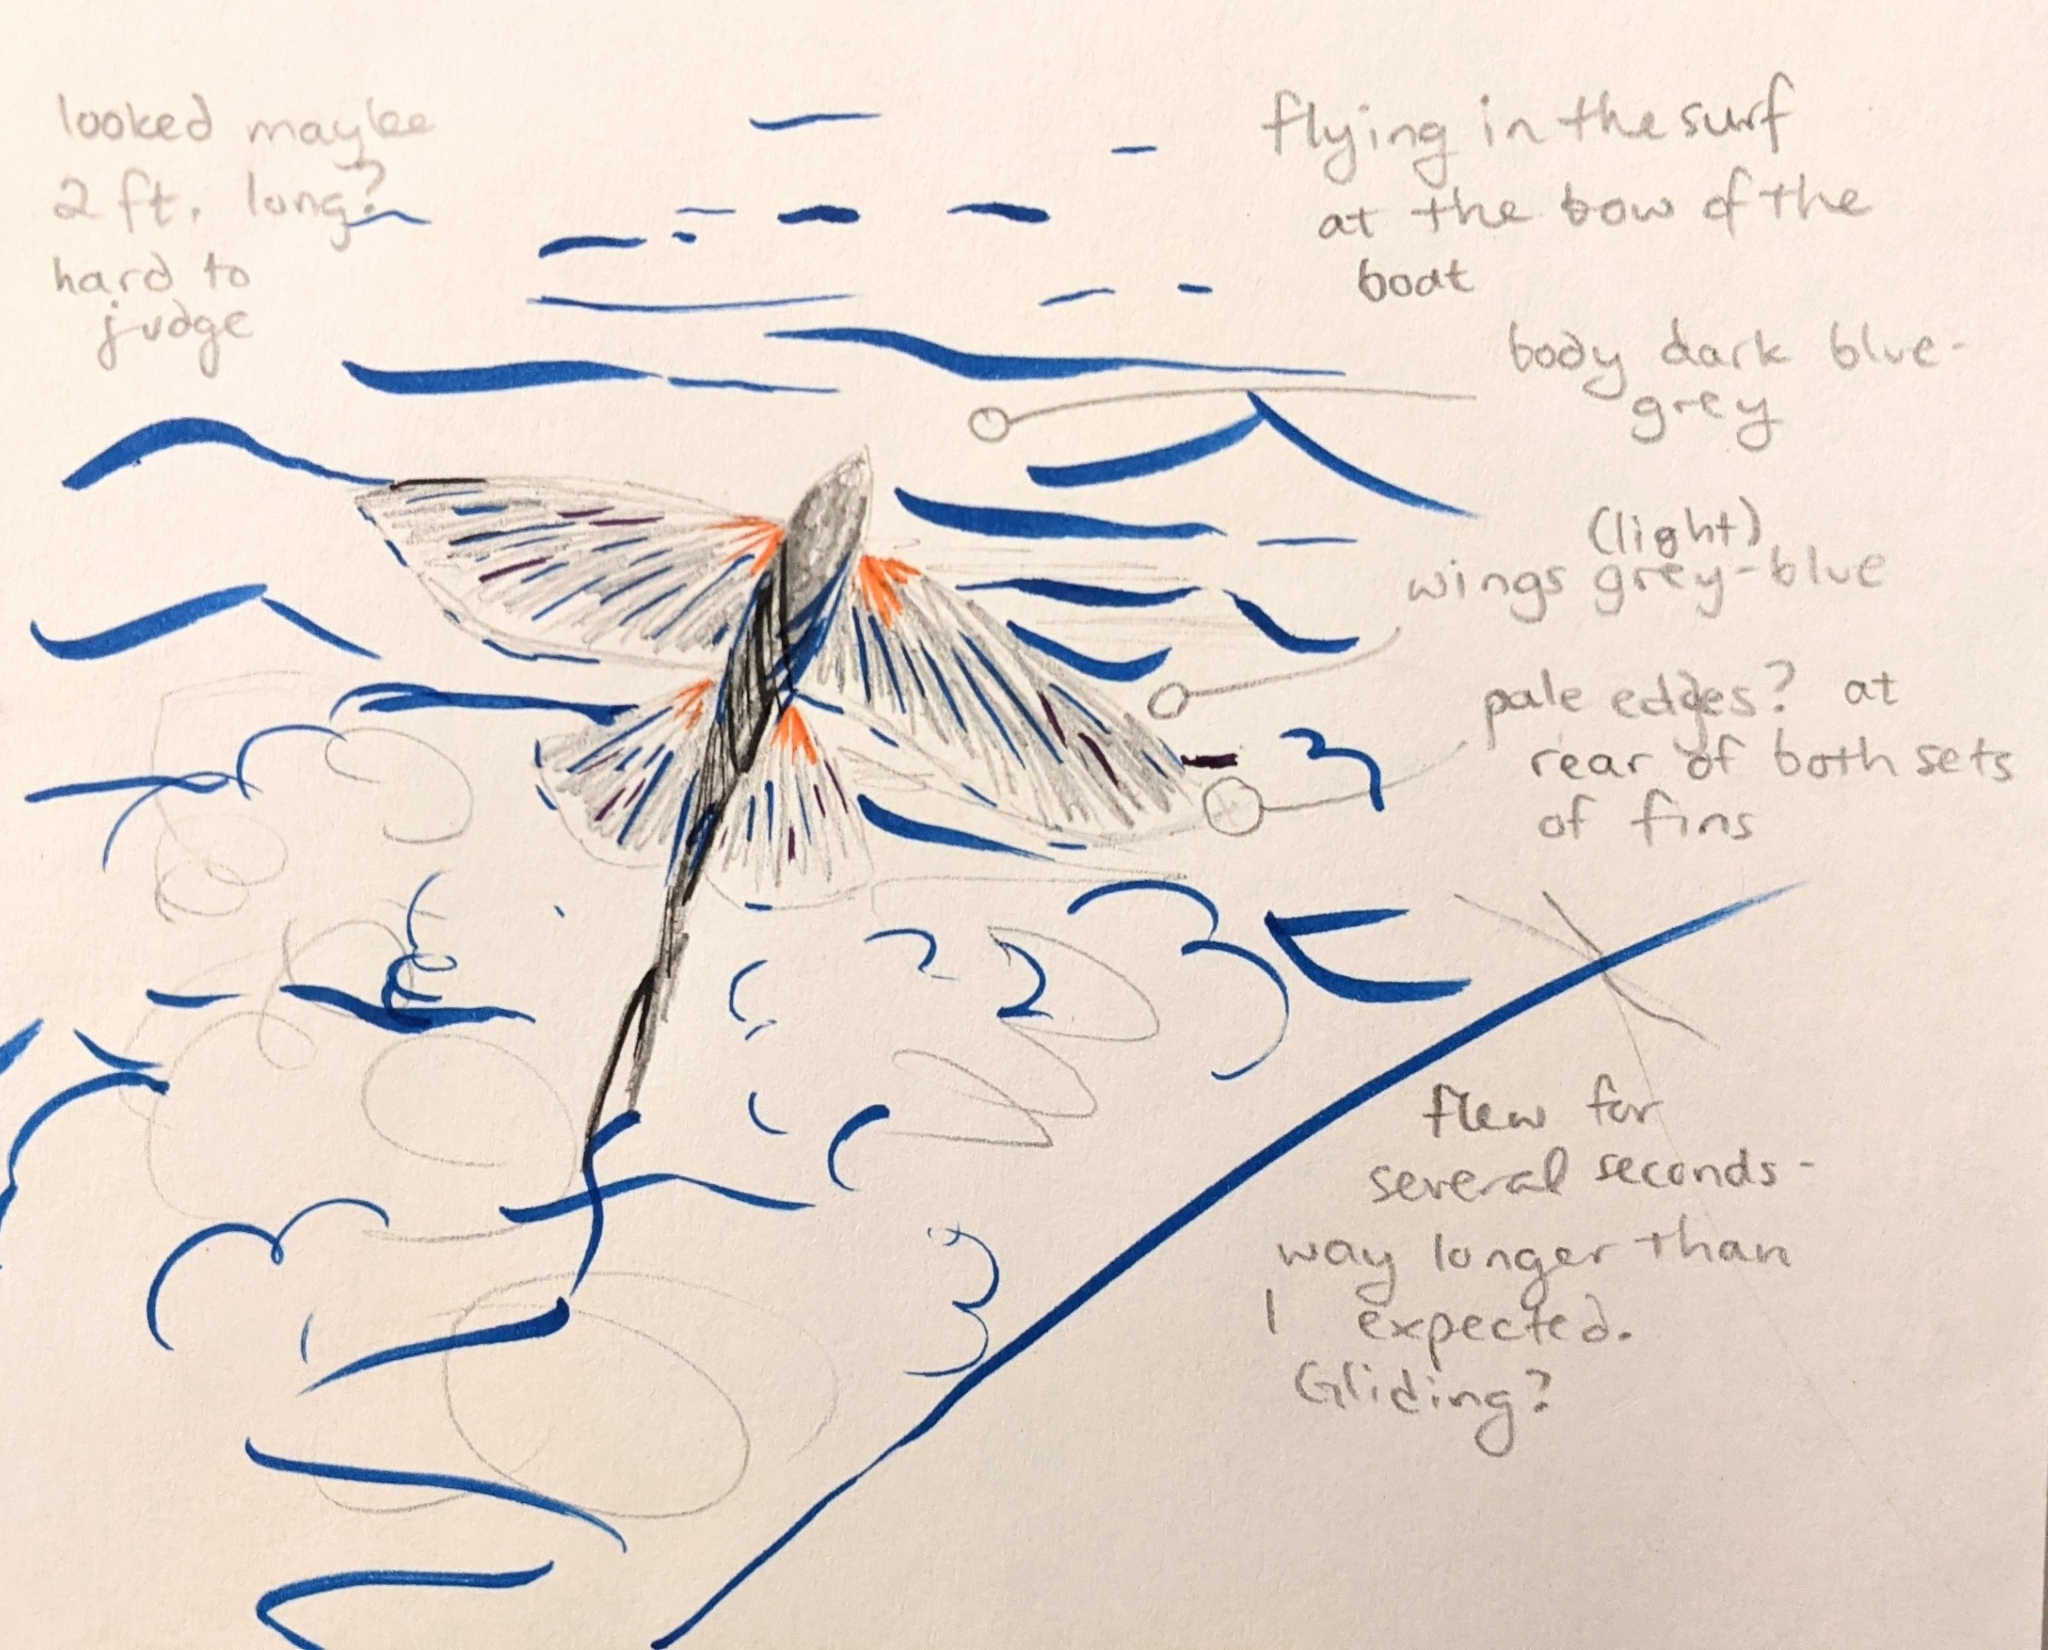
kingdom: Animalia
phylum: Chordata
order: Beloniformes
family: Exocoetidae
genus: Cheilopogon
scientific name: Cheilopogon pinnatibarbatus
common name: Bennett's flyingfish
